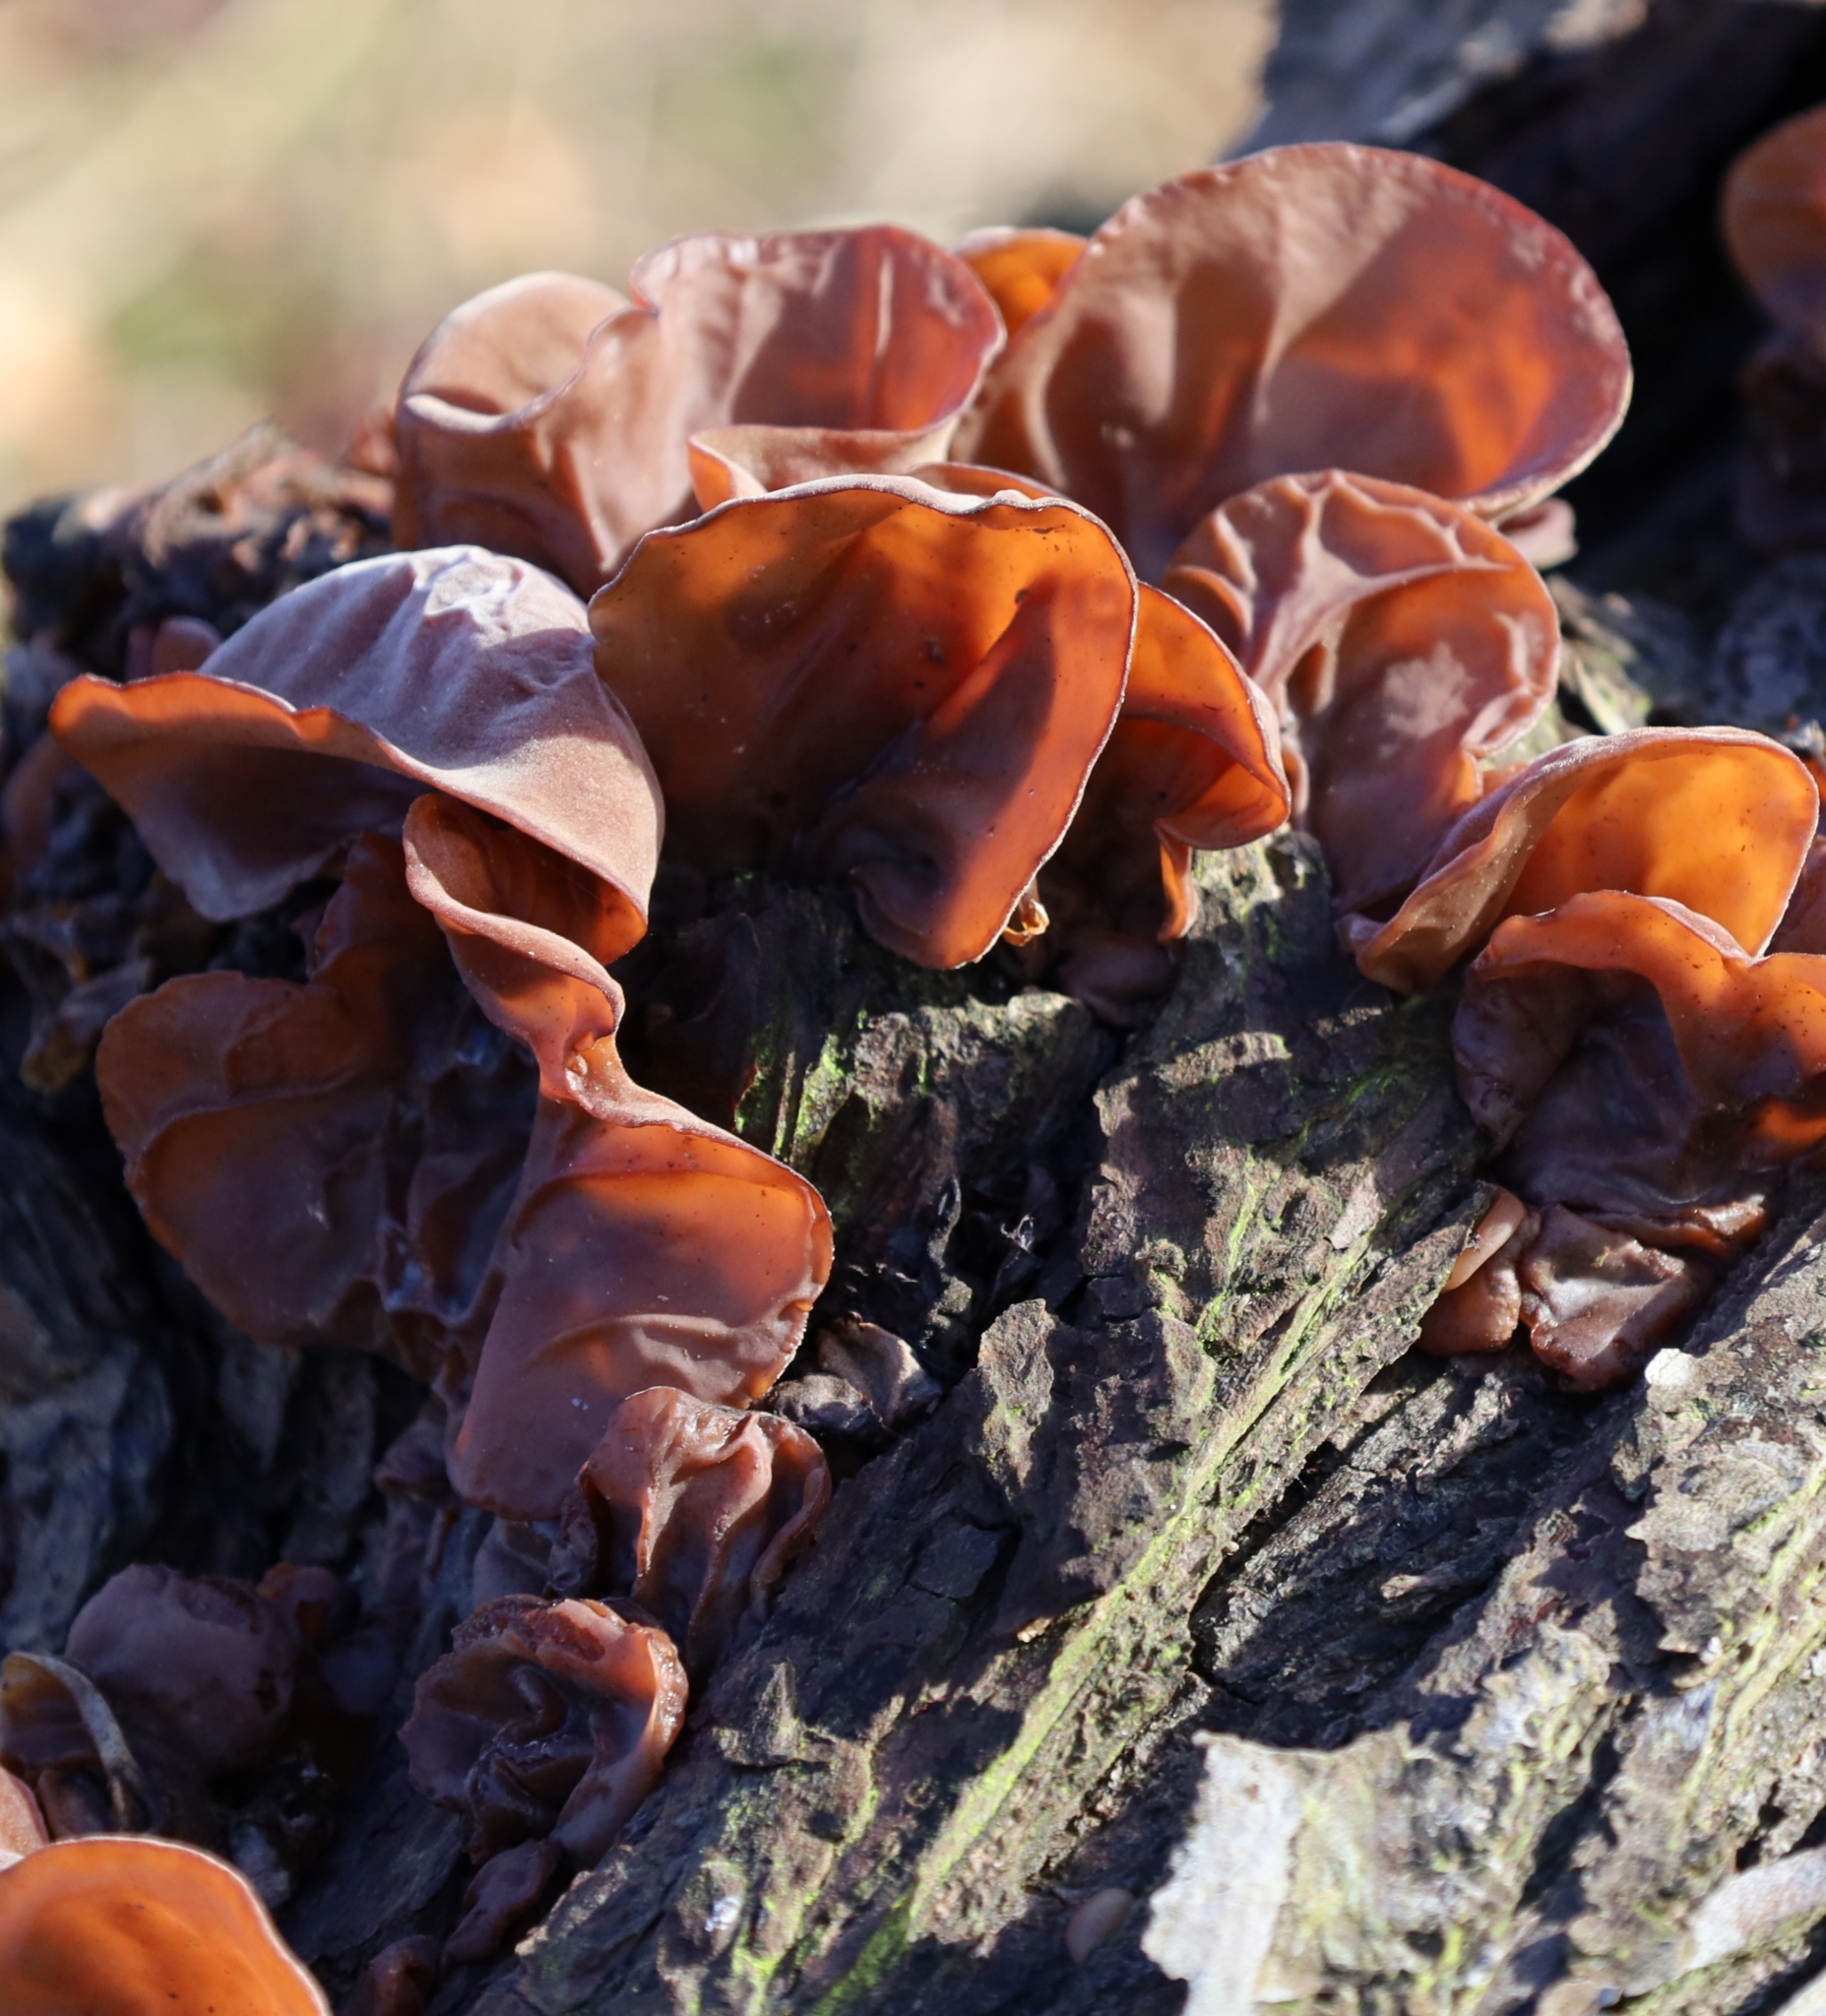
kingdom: Fungi
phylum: Basidiomycota
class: Agaricomycetes
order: Auriculariales
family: Auriculariaceae
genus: Auricularia
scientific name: Auricularia auricula-judae
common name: Jelly ear
